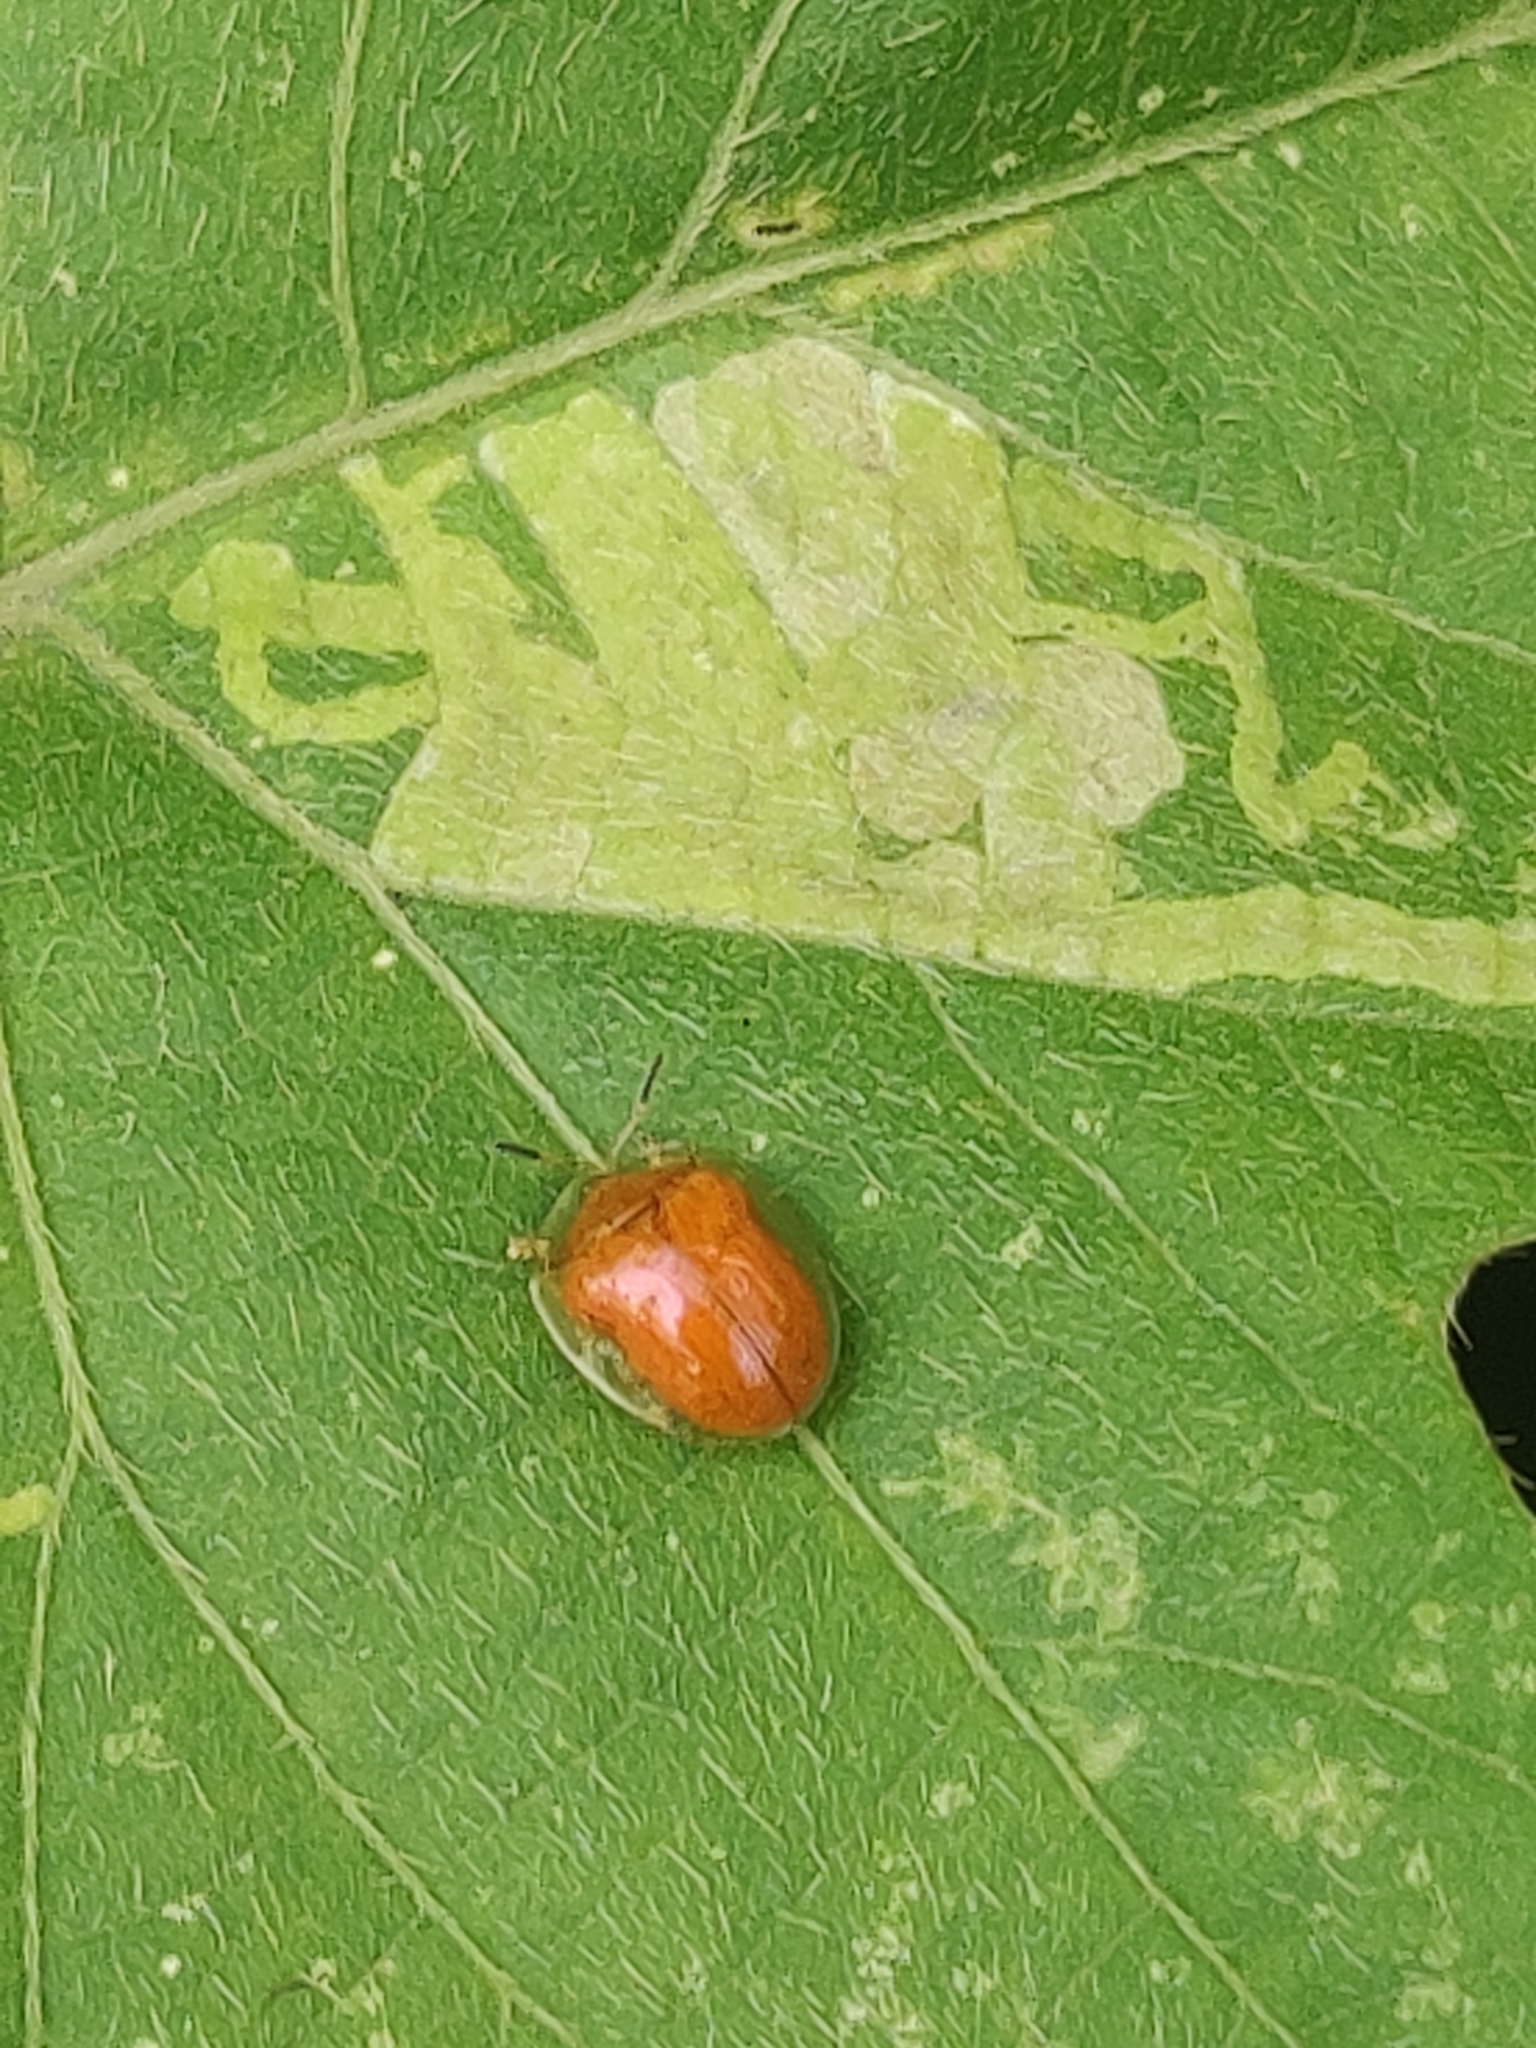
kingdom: Animalia
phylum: Arthropoda
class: Insecta
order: Coleoptera
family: Chrysomelidae
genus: Charidotella
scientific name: Charidotella sexpunctata
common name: Golden tortoise beetle
